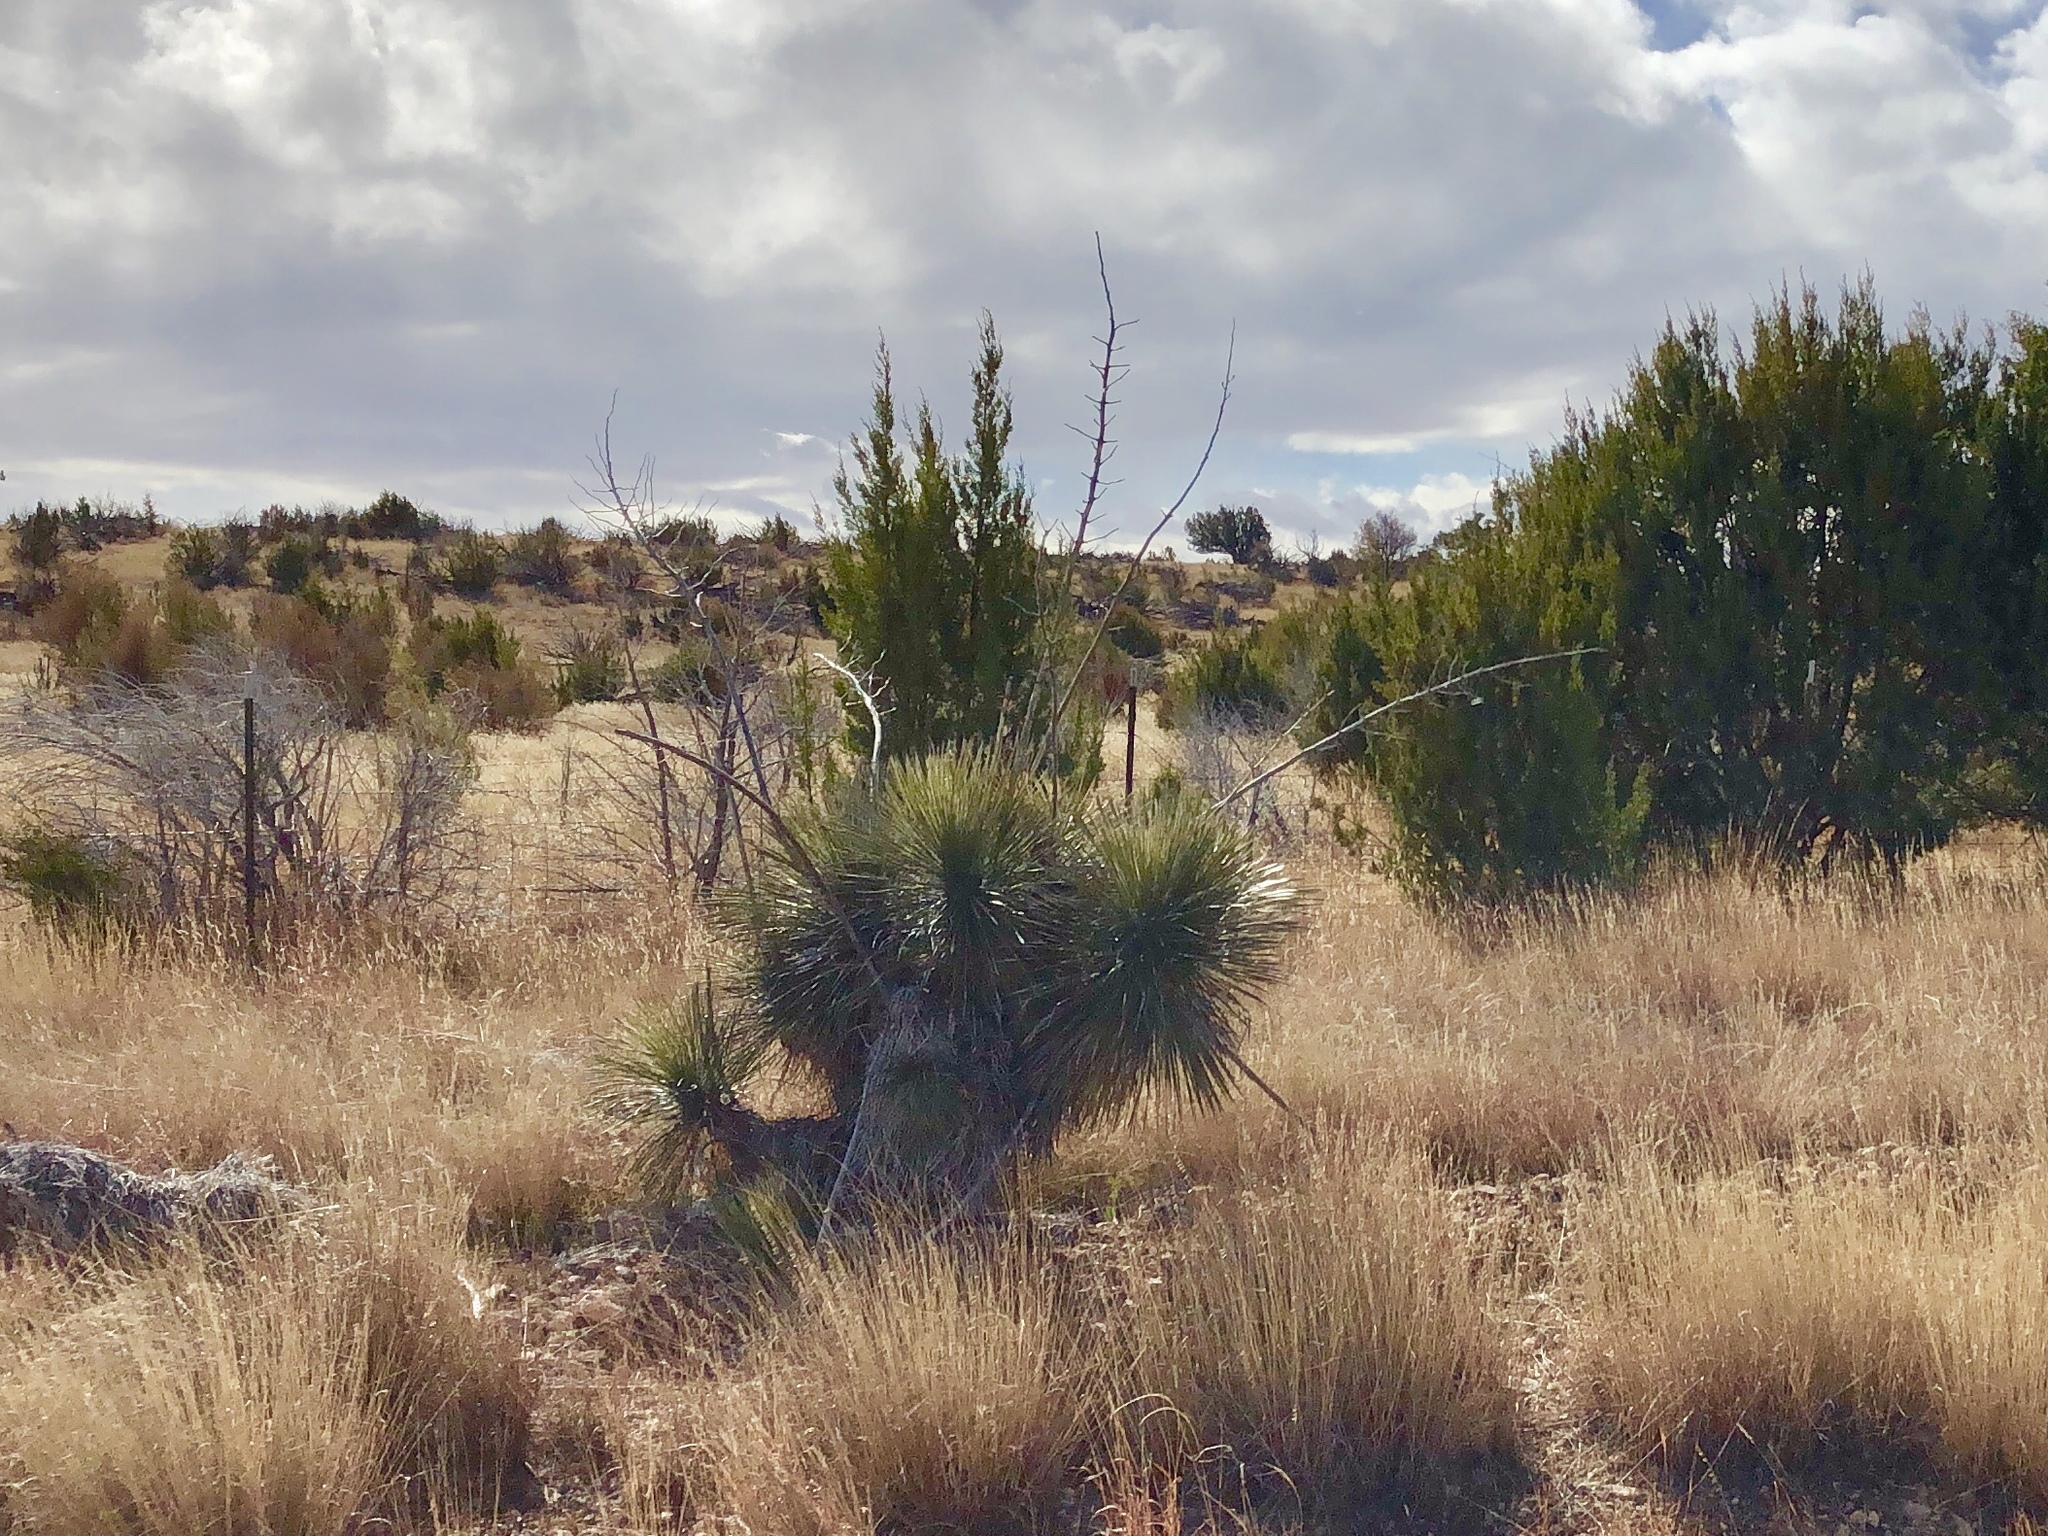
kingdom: Plantae
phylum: Tracheophyta
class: Liliopsida
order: Asparagales
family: Asparagaceae
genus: Yucca
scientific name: Yucca elata
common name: Palmella
